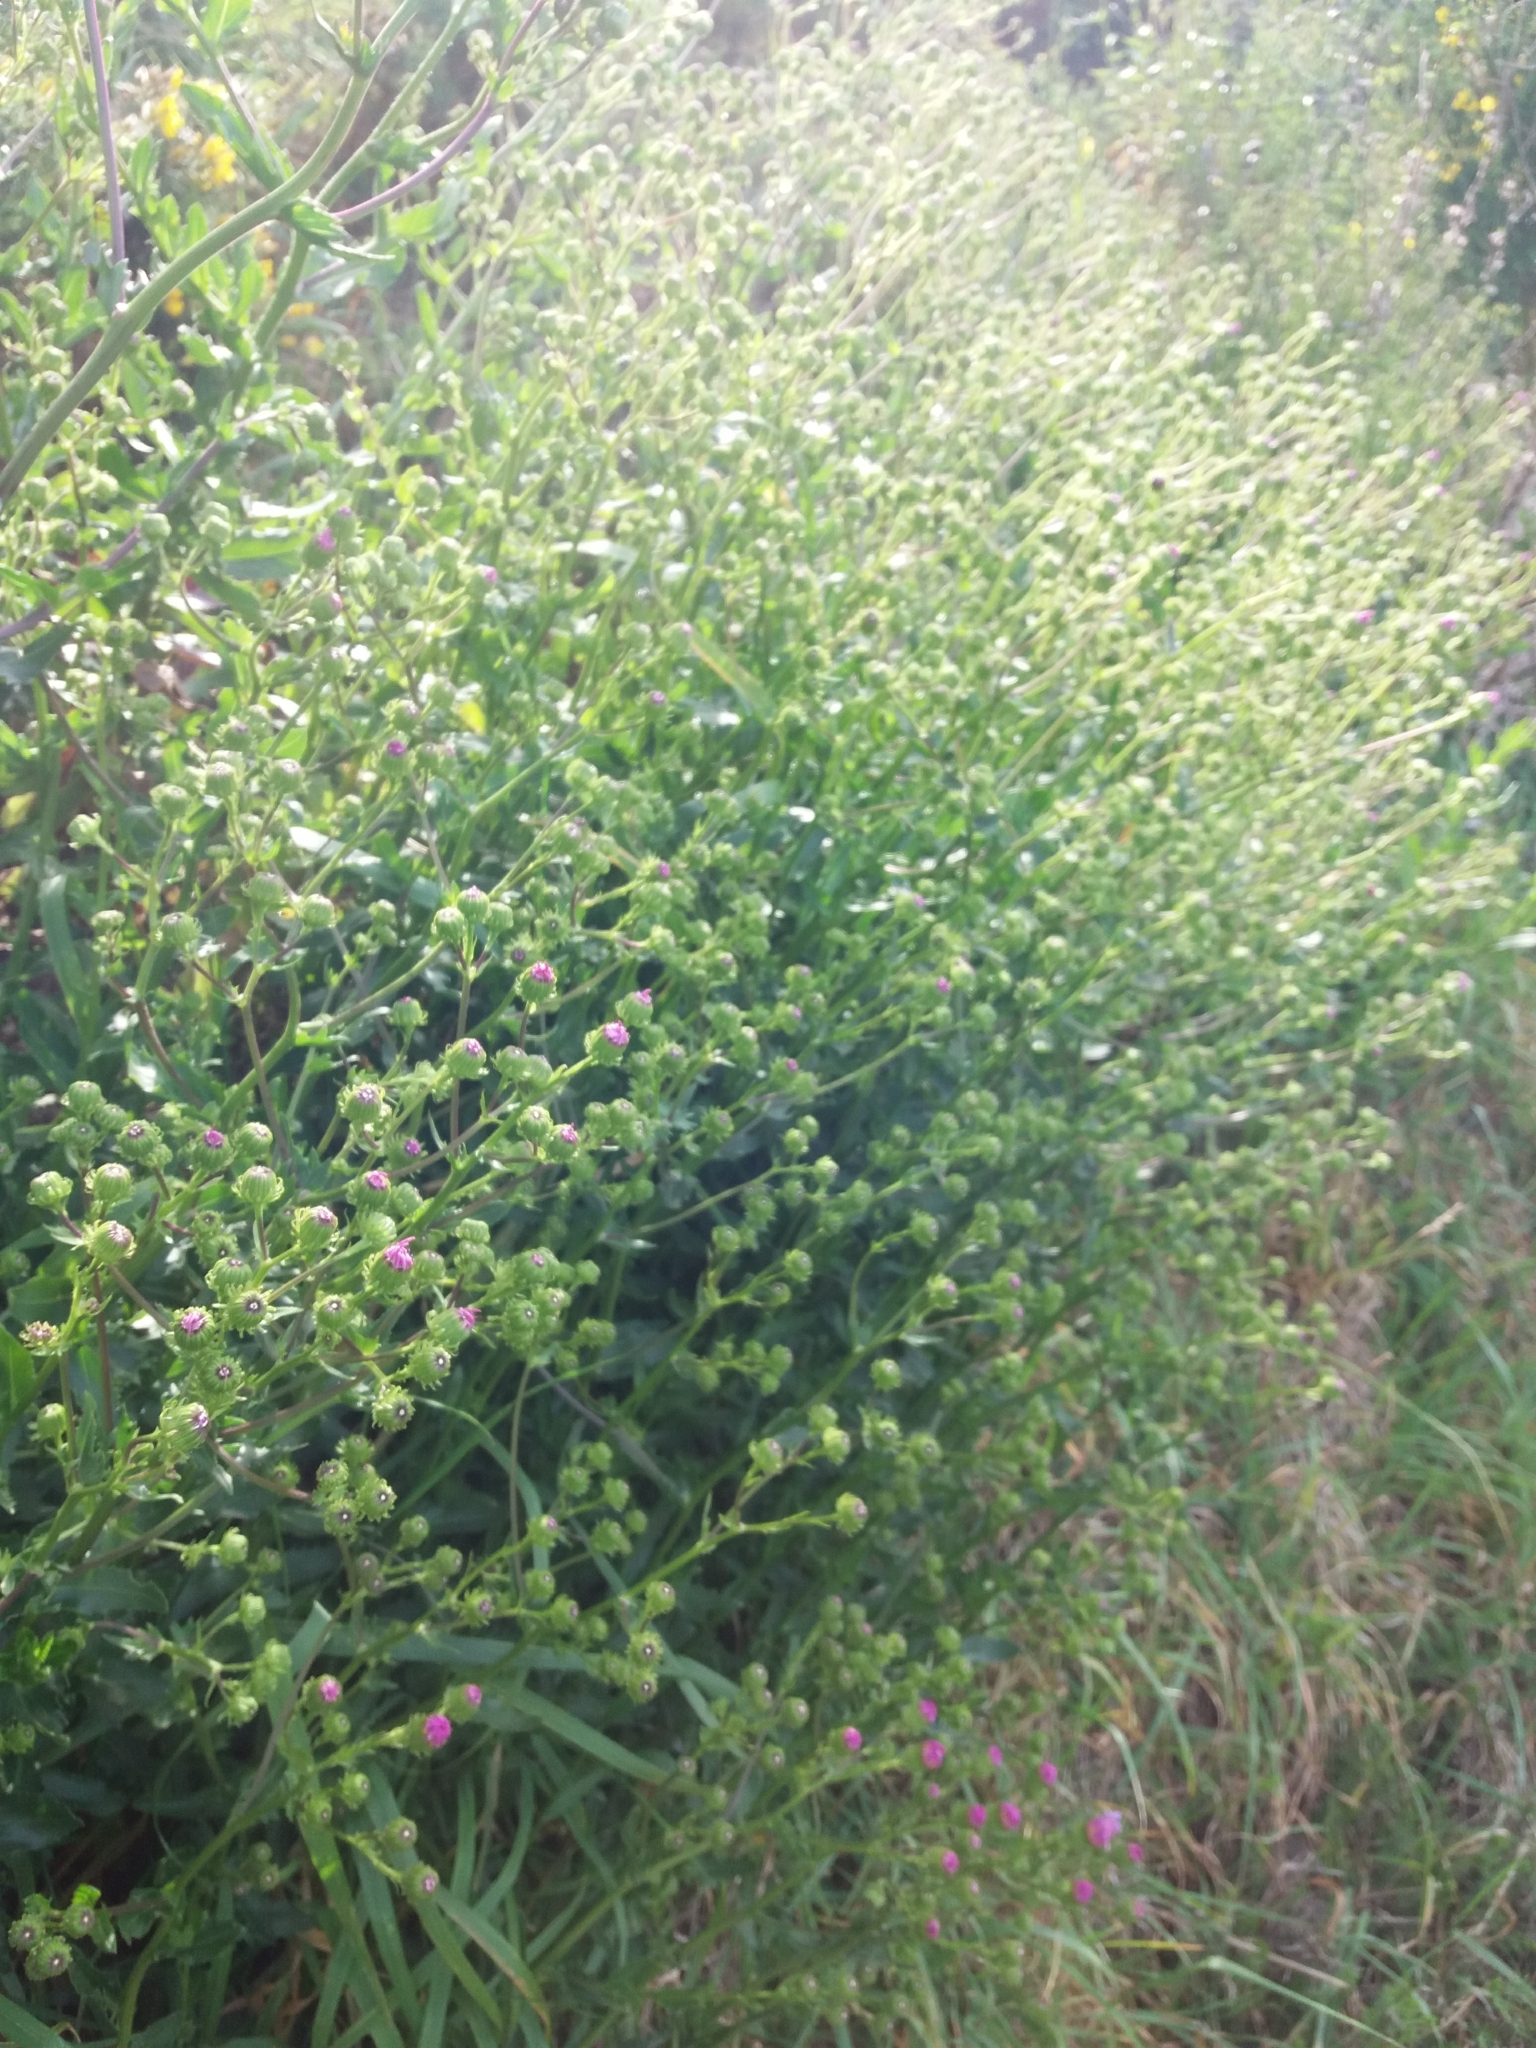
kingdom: Plantae
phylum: Tracheophyta
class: Magnoliopsida
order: Asterales
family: Asteraceae
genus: Senecio
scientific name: Senecio glastifolius
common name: Woad-leaved ragwort
